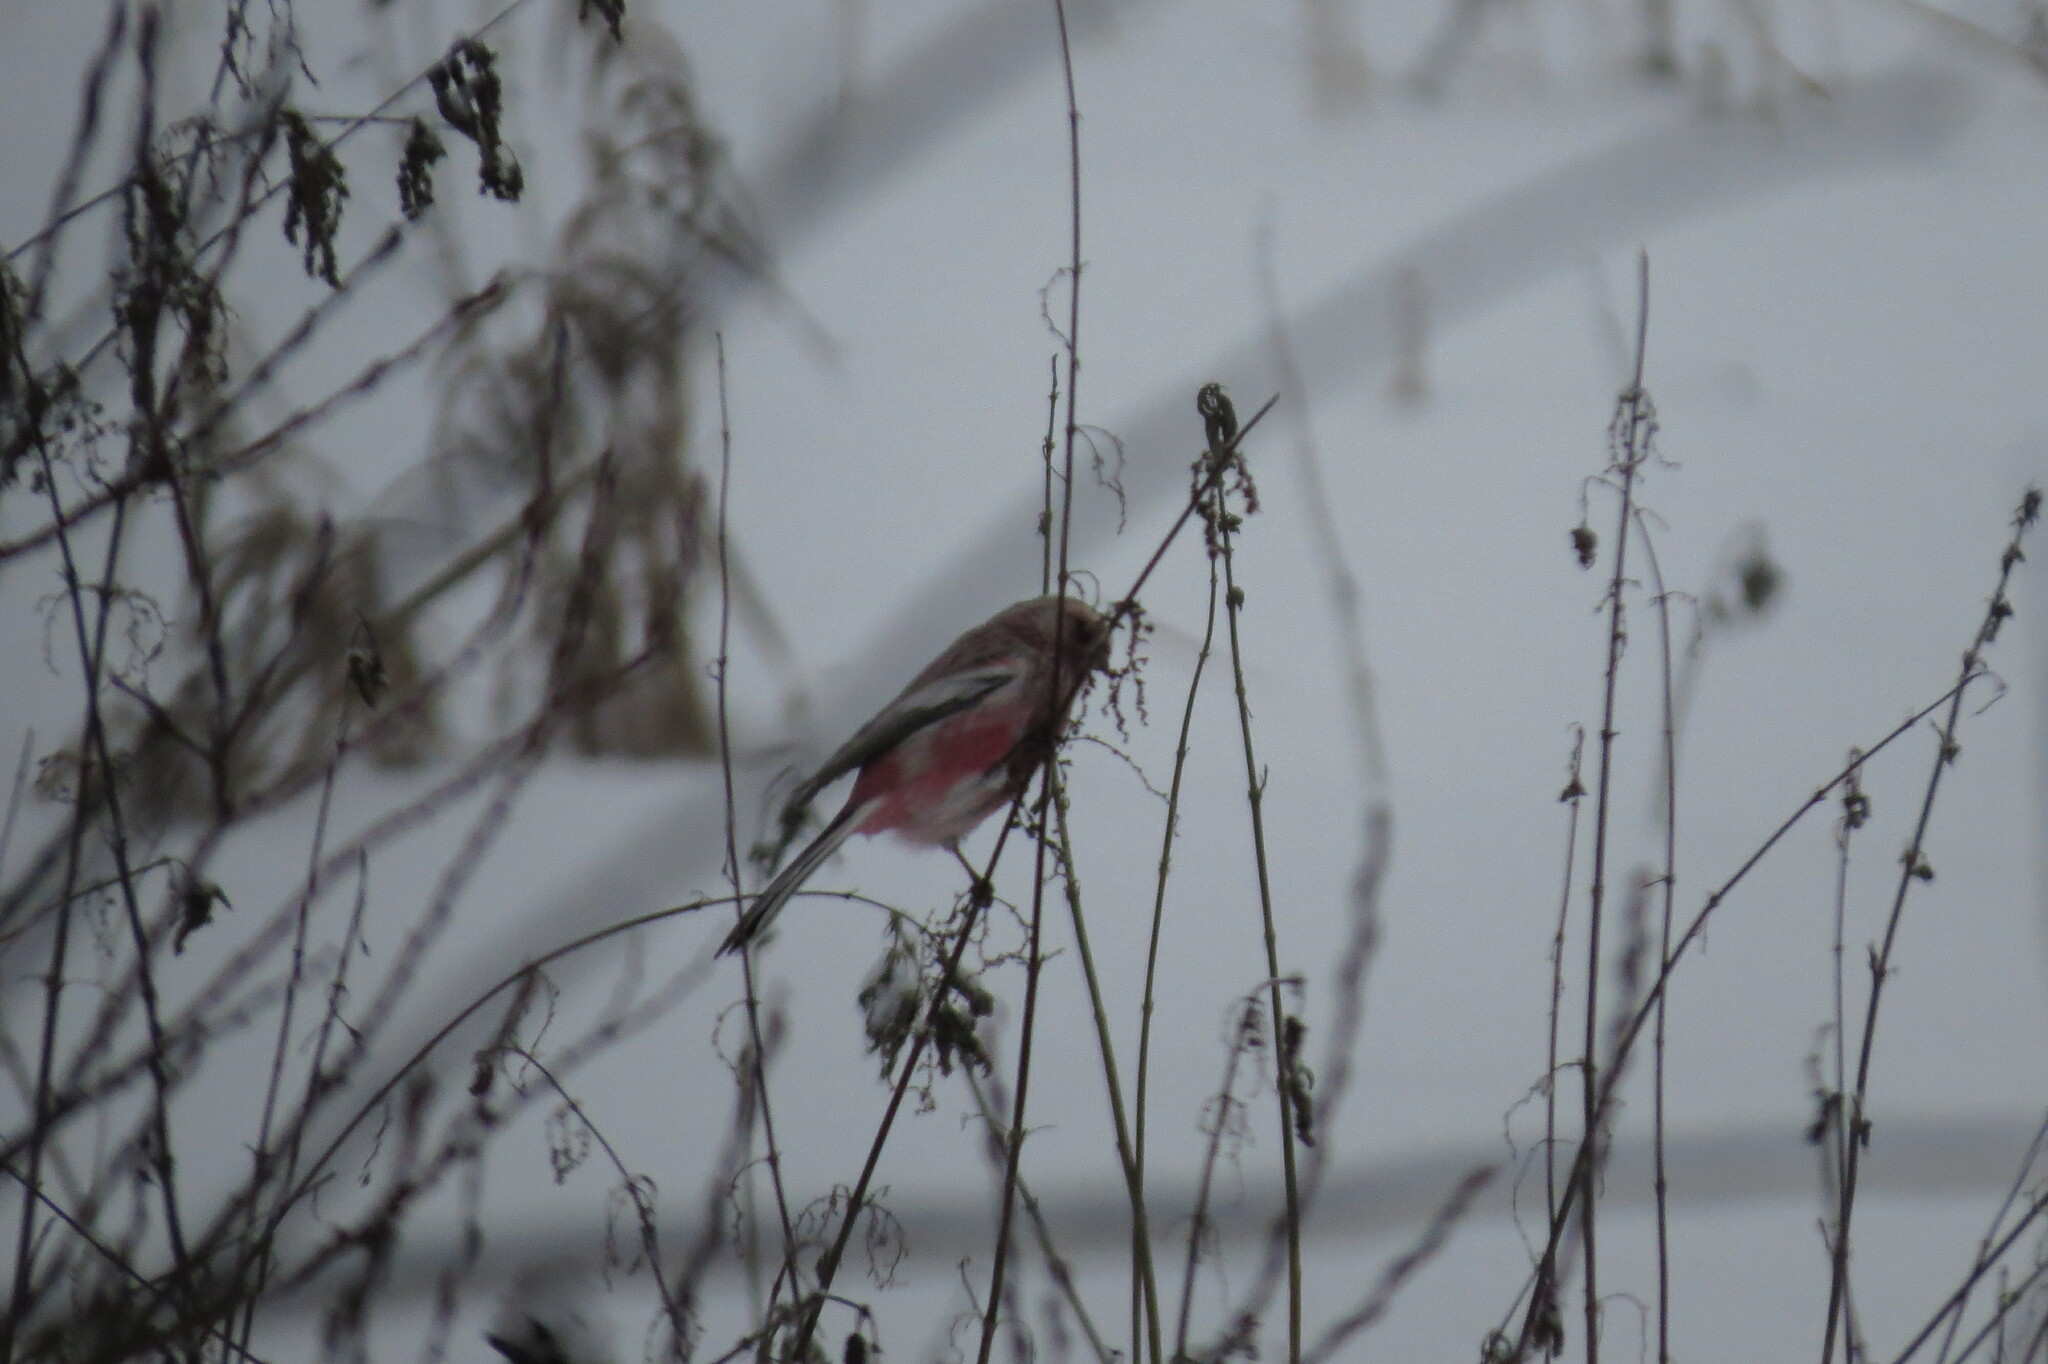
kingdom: Animalia
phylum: Chordata
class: Aves
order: Passeriformes
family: Fringillidae
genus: Carpodacus
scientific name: Carpodacus sibiricus
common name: Long-tailed rosefinch
